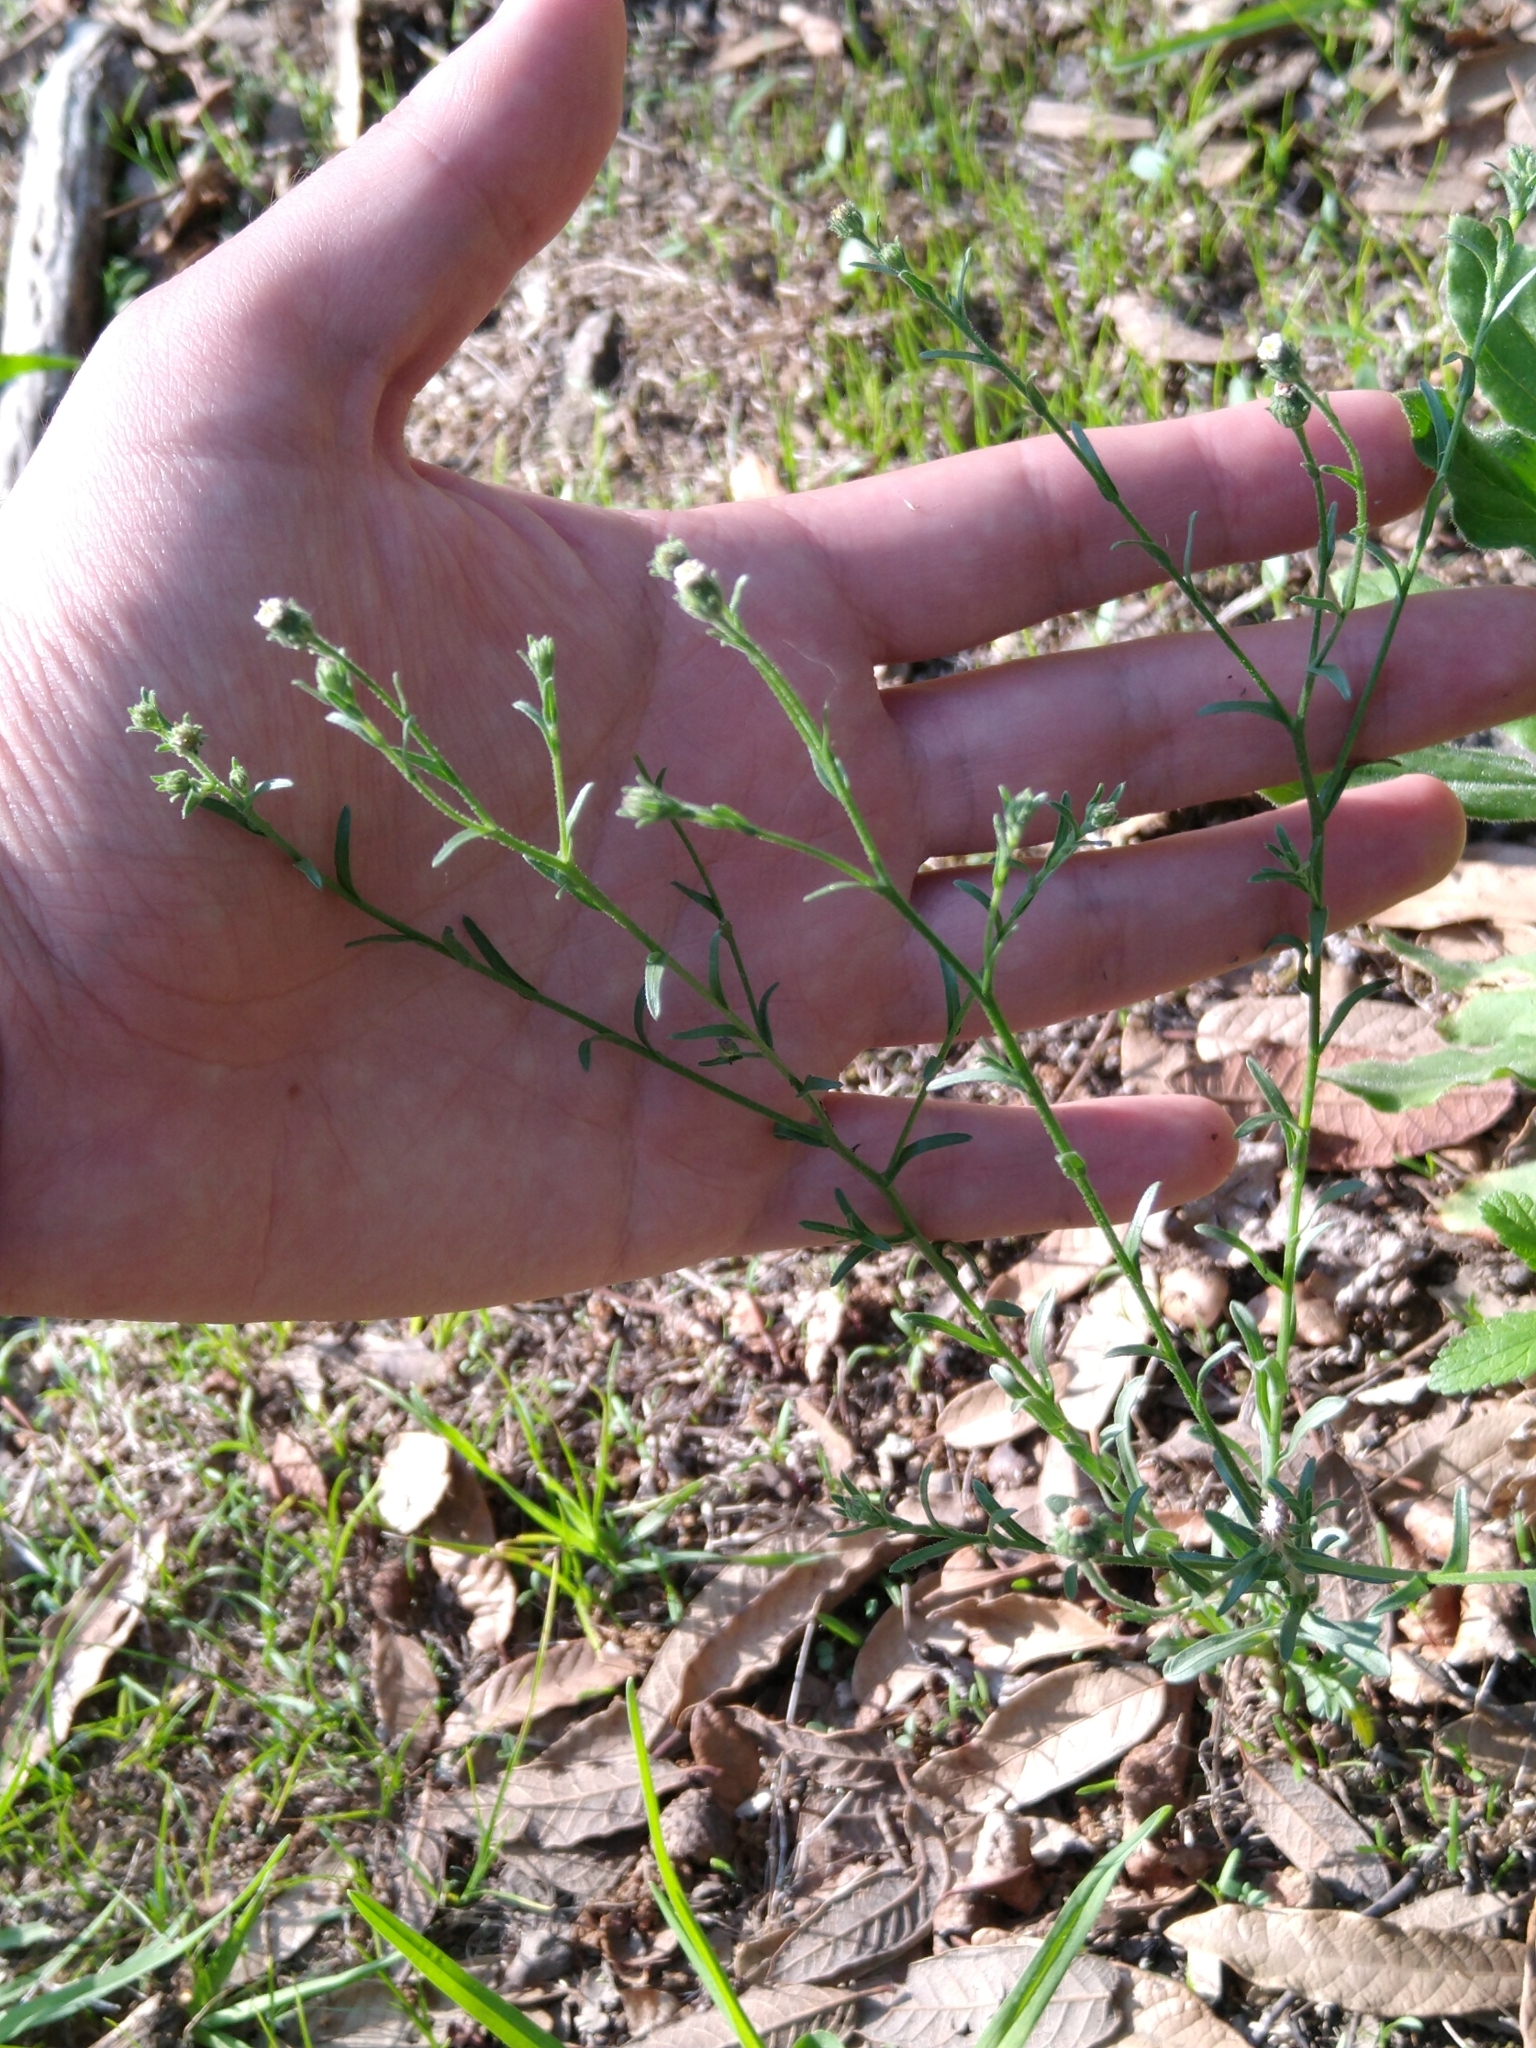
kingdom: Plantae
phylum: Tracheophyta
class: Magnoliopsida
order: Asterales
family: Asteraceae
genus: Psilactis
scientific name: Psilactis brevilingulata
